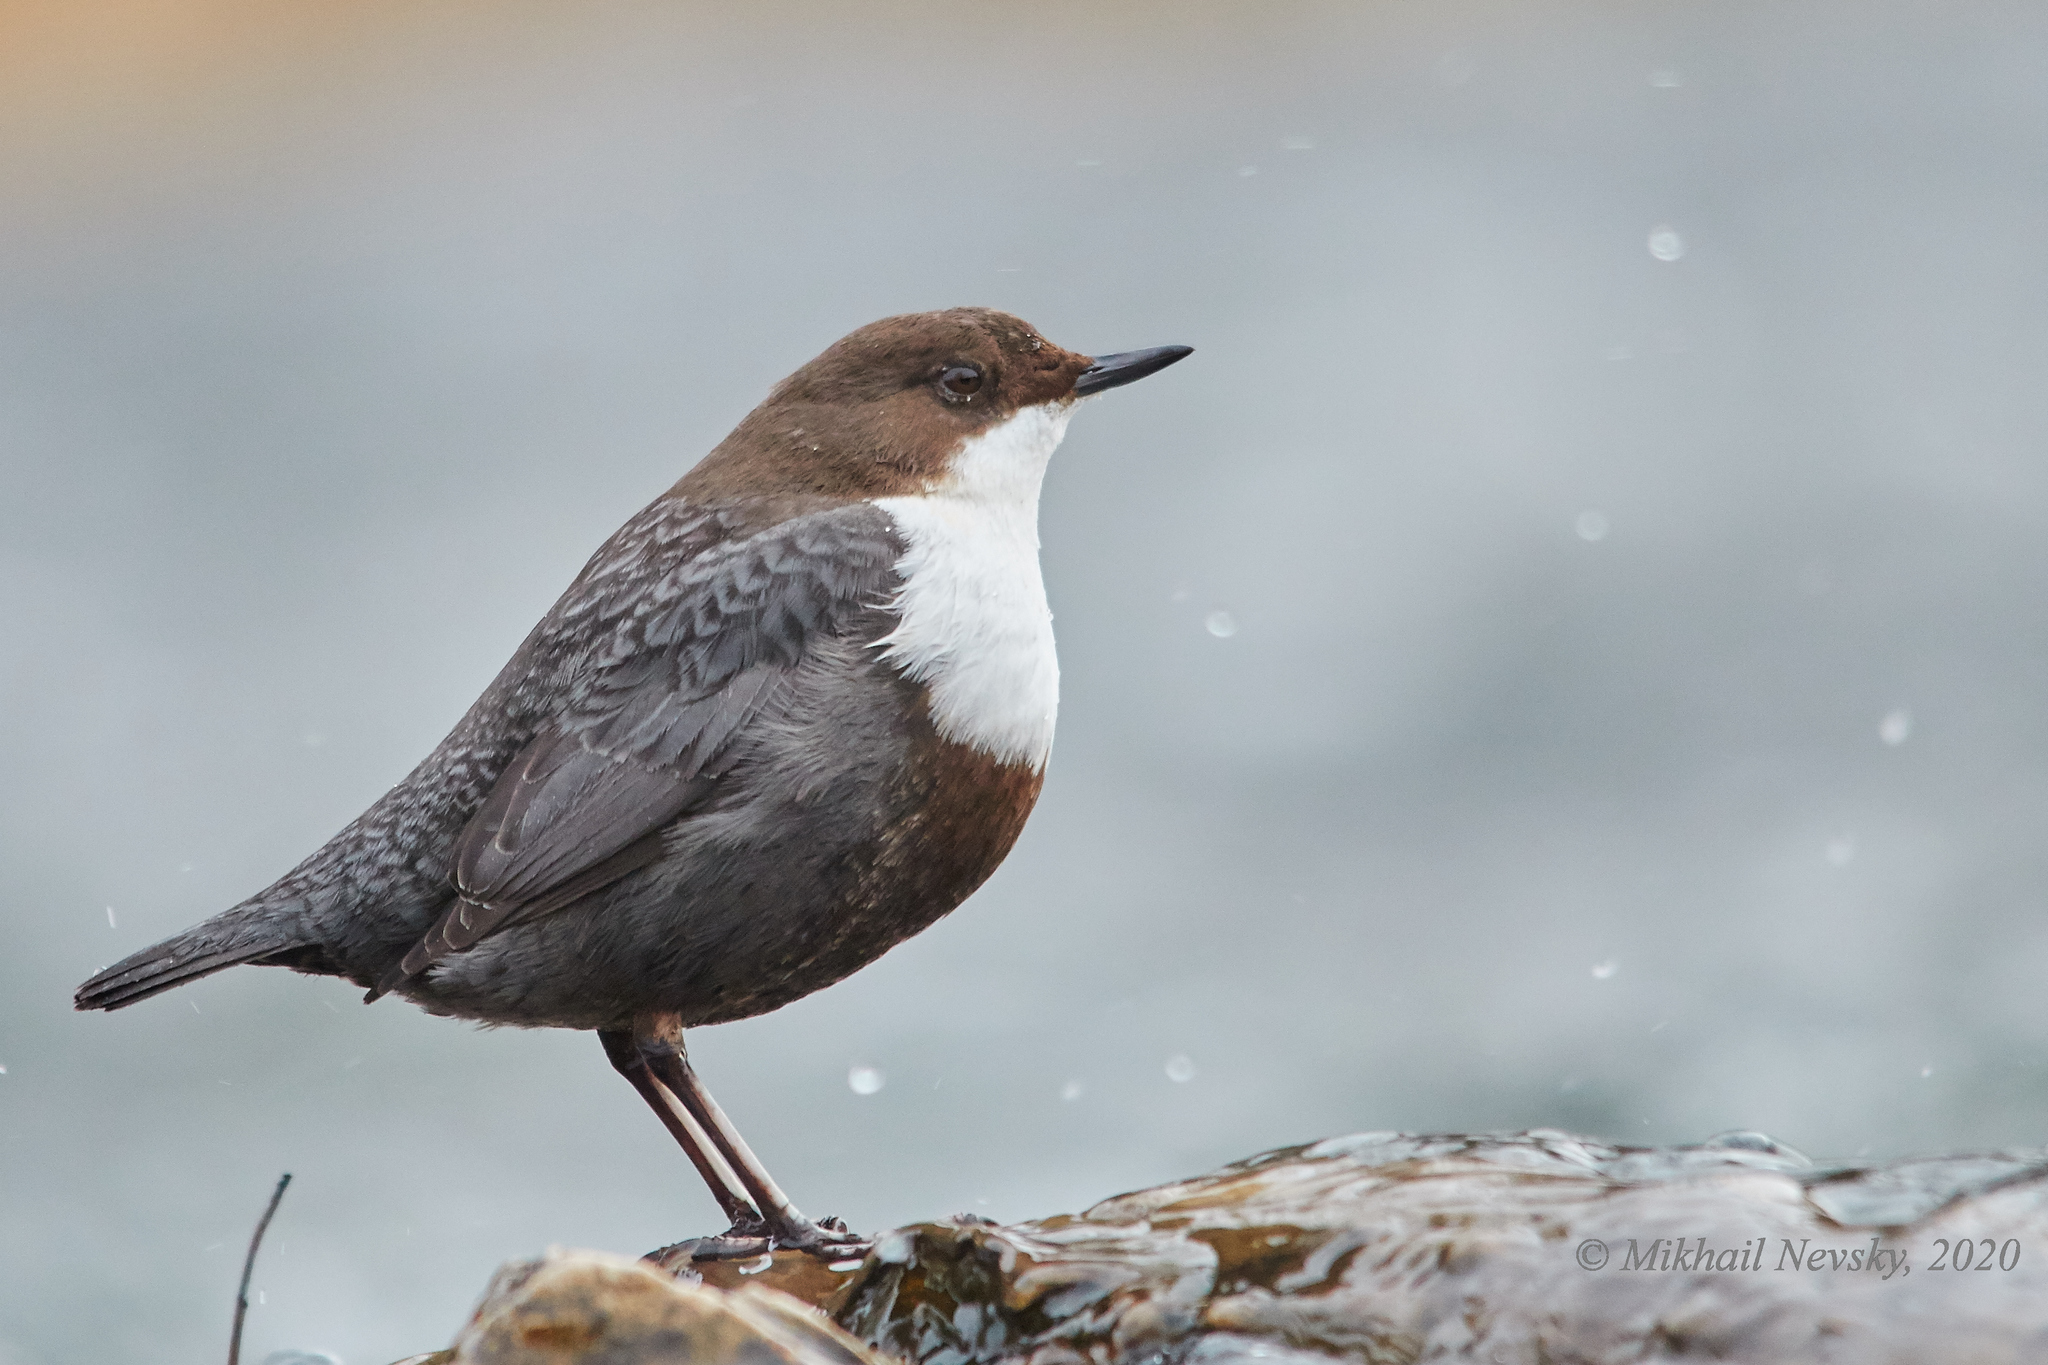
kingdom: Animalia
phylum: Chordata
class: Aves
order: Passeriformes
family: Cinclidae
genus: Cinclus
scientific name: Cinclus cinclus
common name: White-throated dipper
